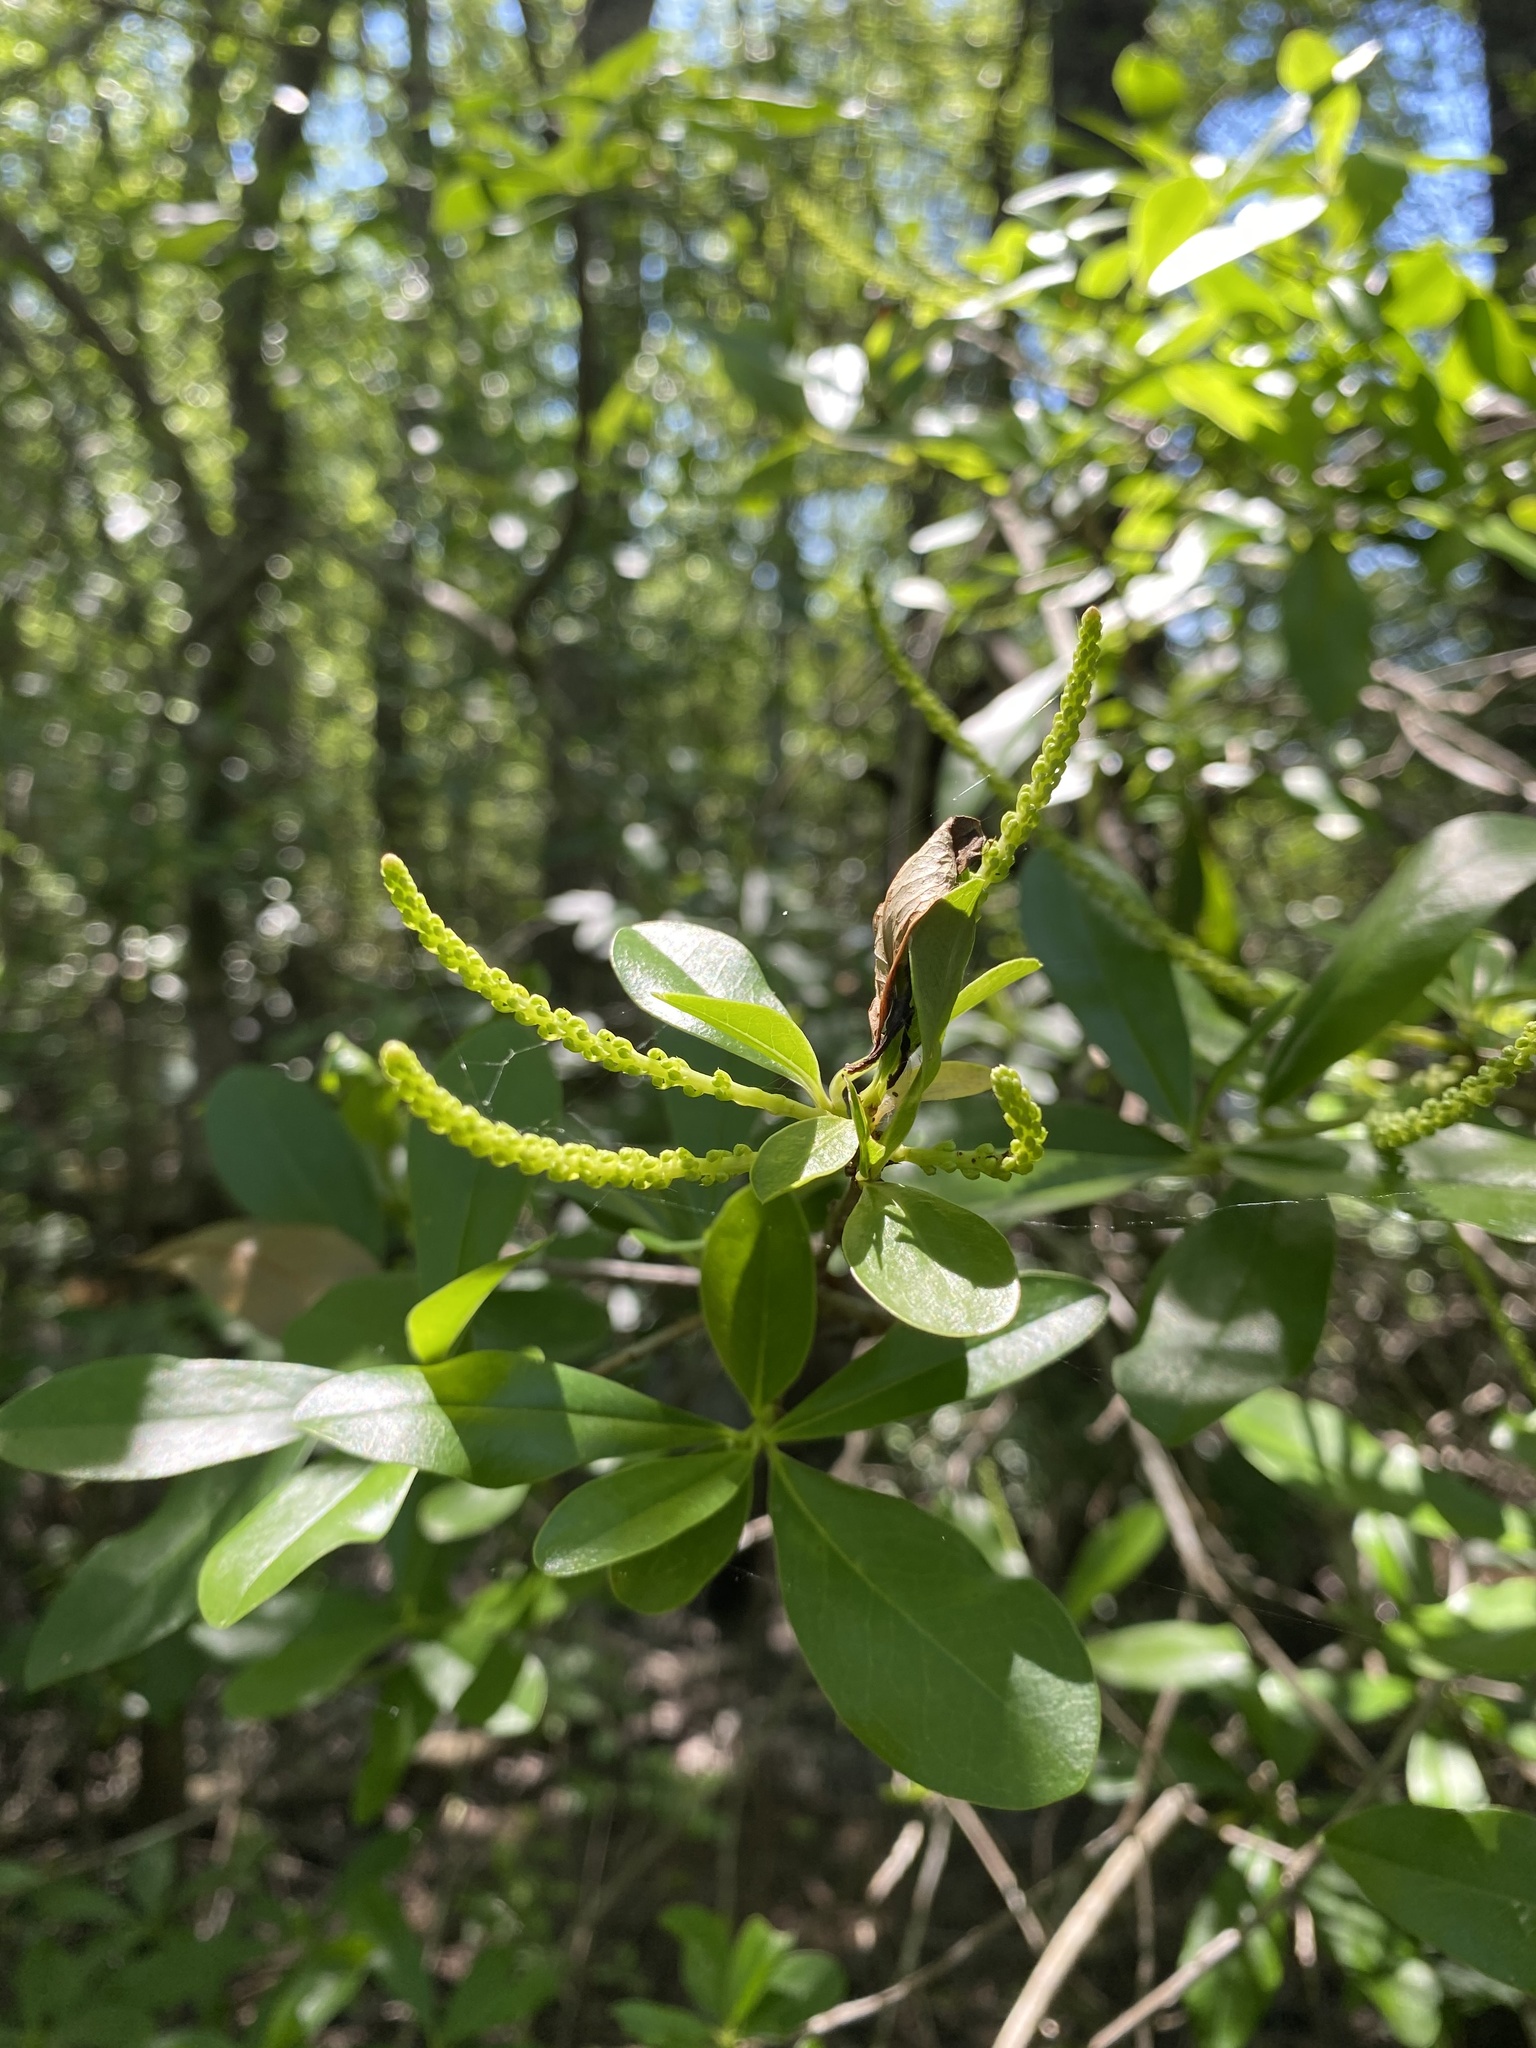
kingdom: Plantae
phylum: Tracheophyta
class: Magnoliopsida
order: Ericales
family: Cyrillaceae
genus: Cyrilla
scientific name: Cyrilla racemiflora
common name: Black titi
